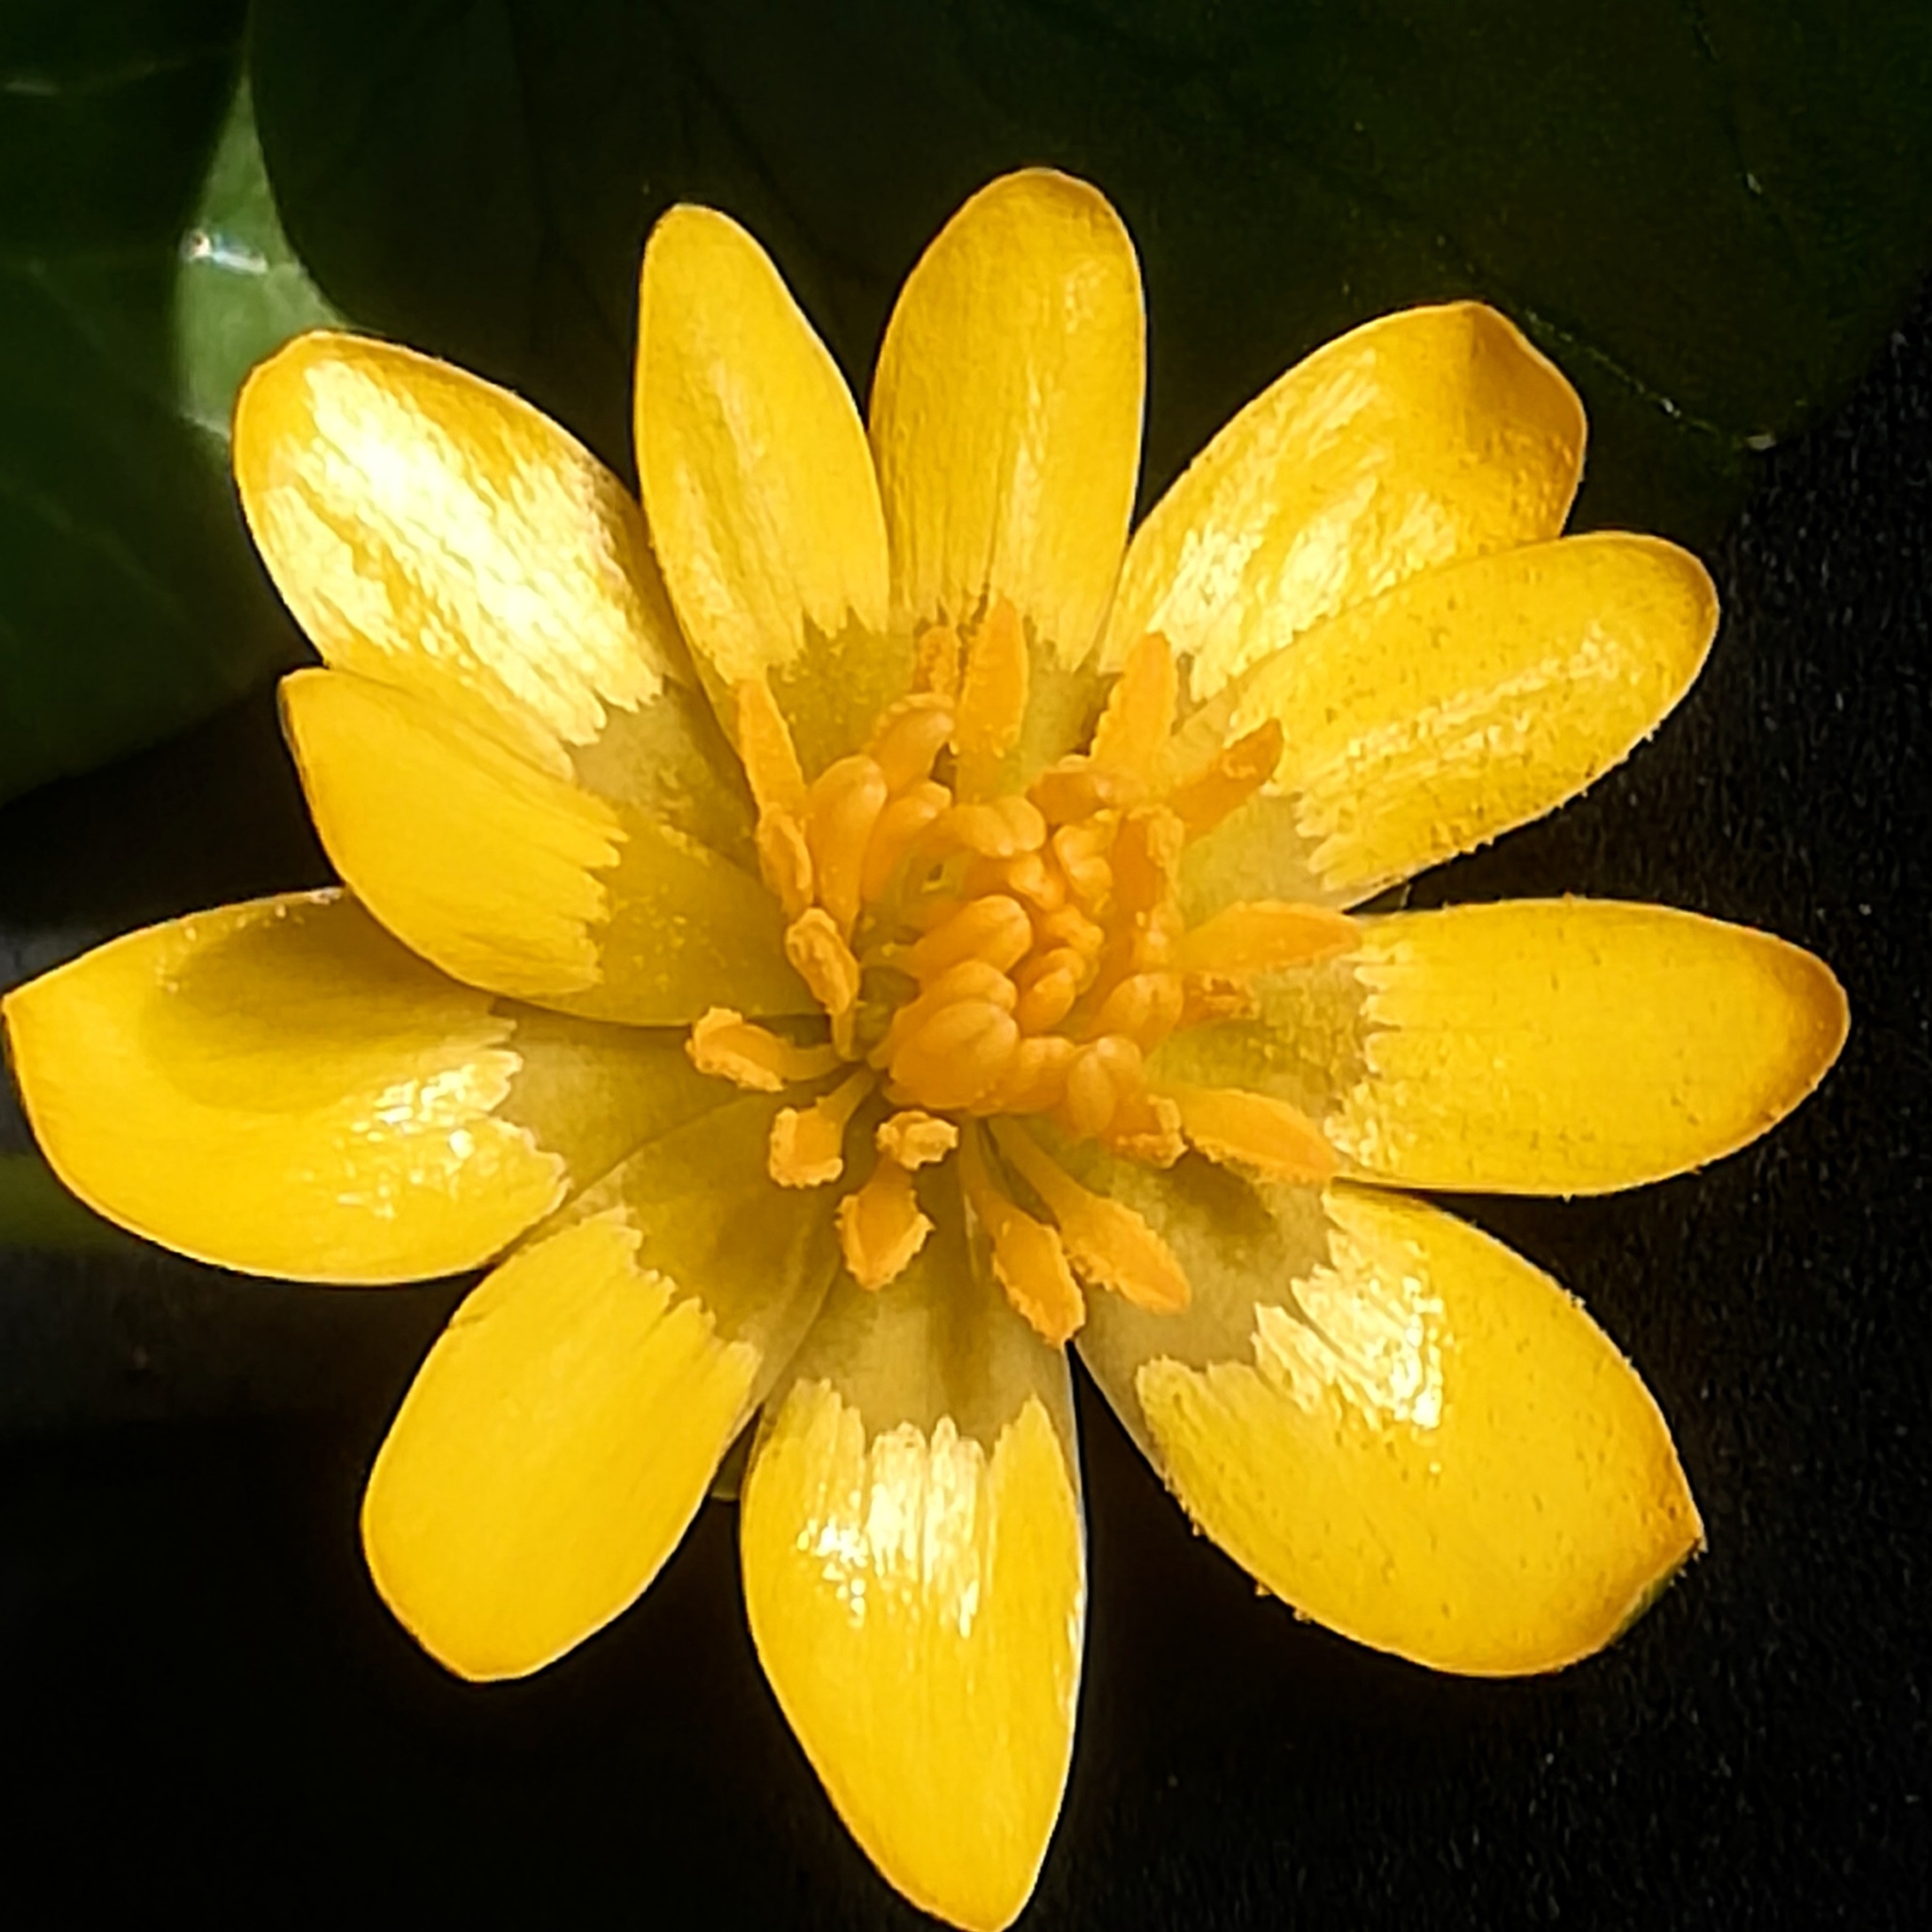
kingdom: Plantae
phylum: Tracheophyta
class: Magnoliopsida
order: Ranunculales
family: Ranunculaceae
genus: Ficaria
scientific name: Ficaria verna
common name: Lesser celandine
